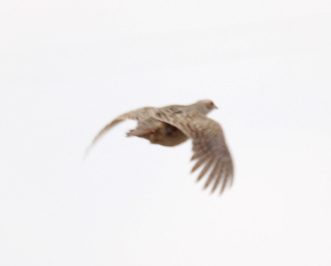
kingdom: Animalia
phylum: Chordata
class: Aves
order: Galliformes
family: Phasianidae
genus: Perdix
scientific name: Perdix perdix
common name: Grey partridge
